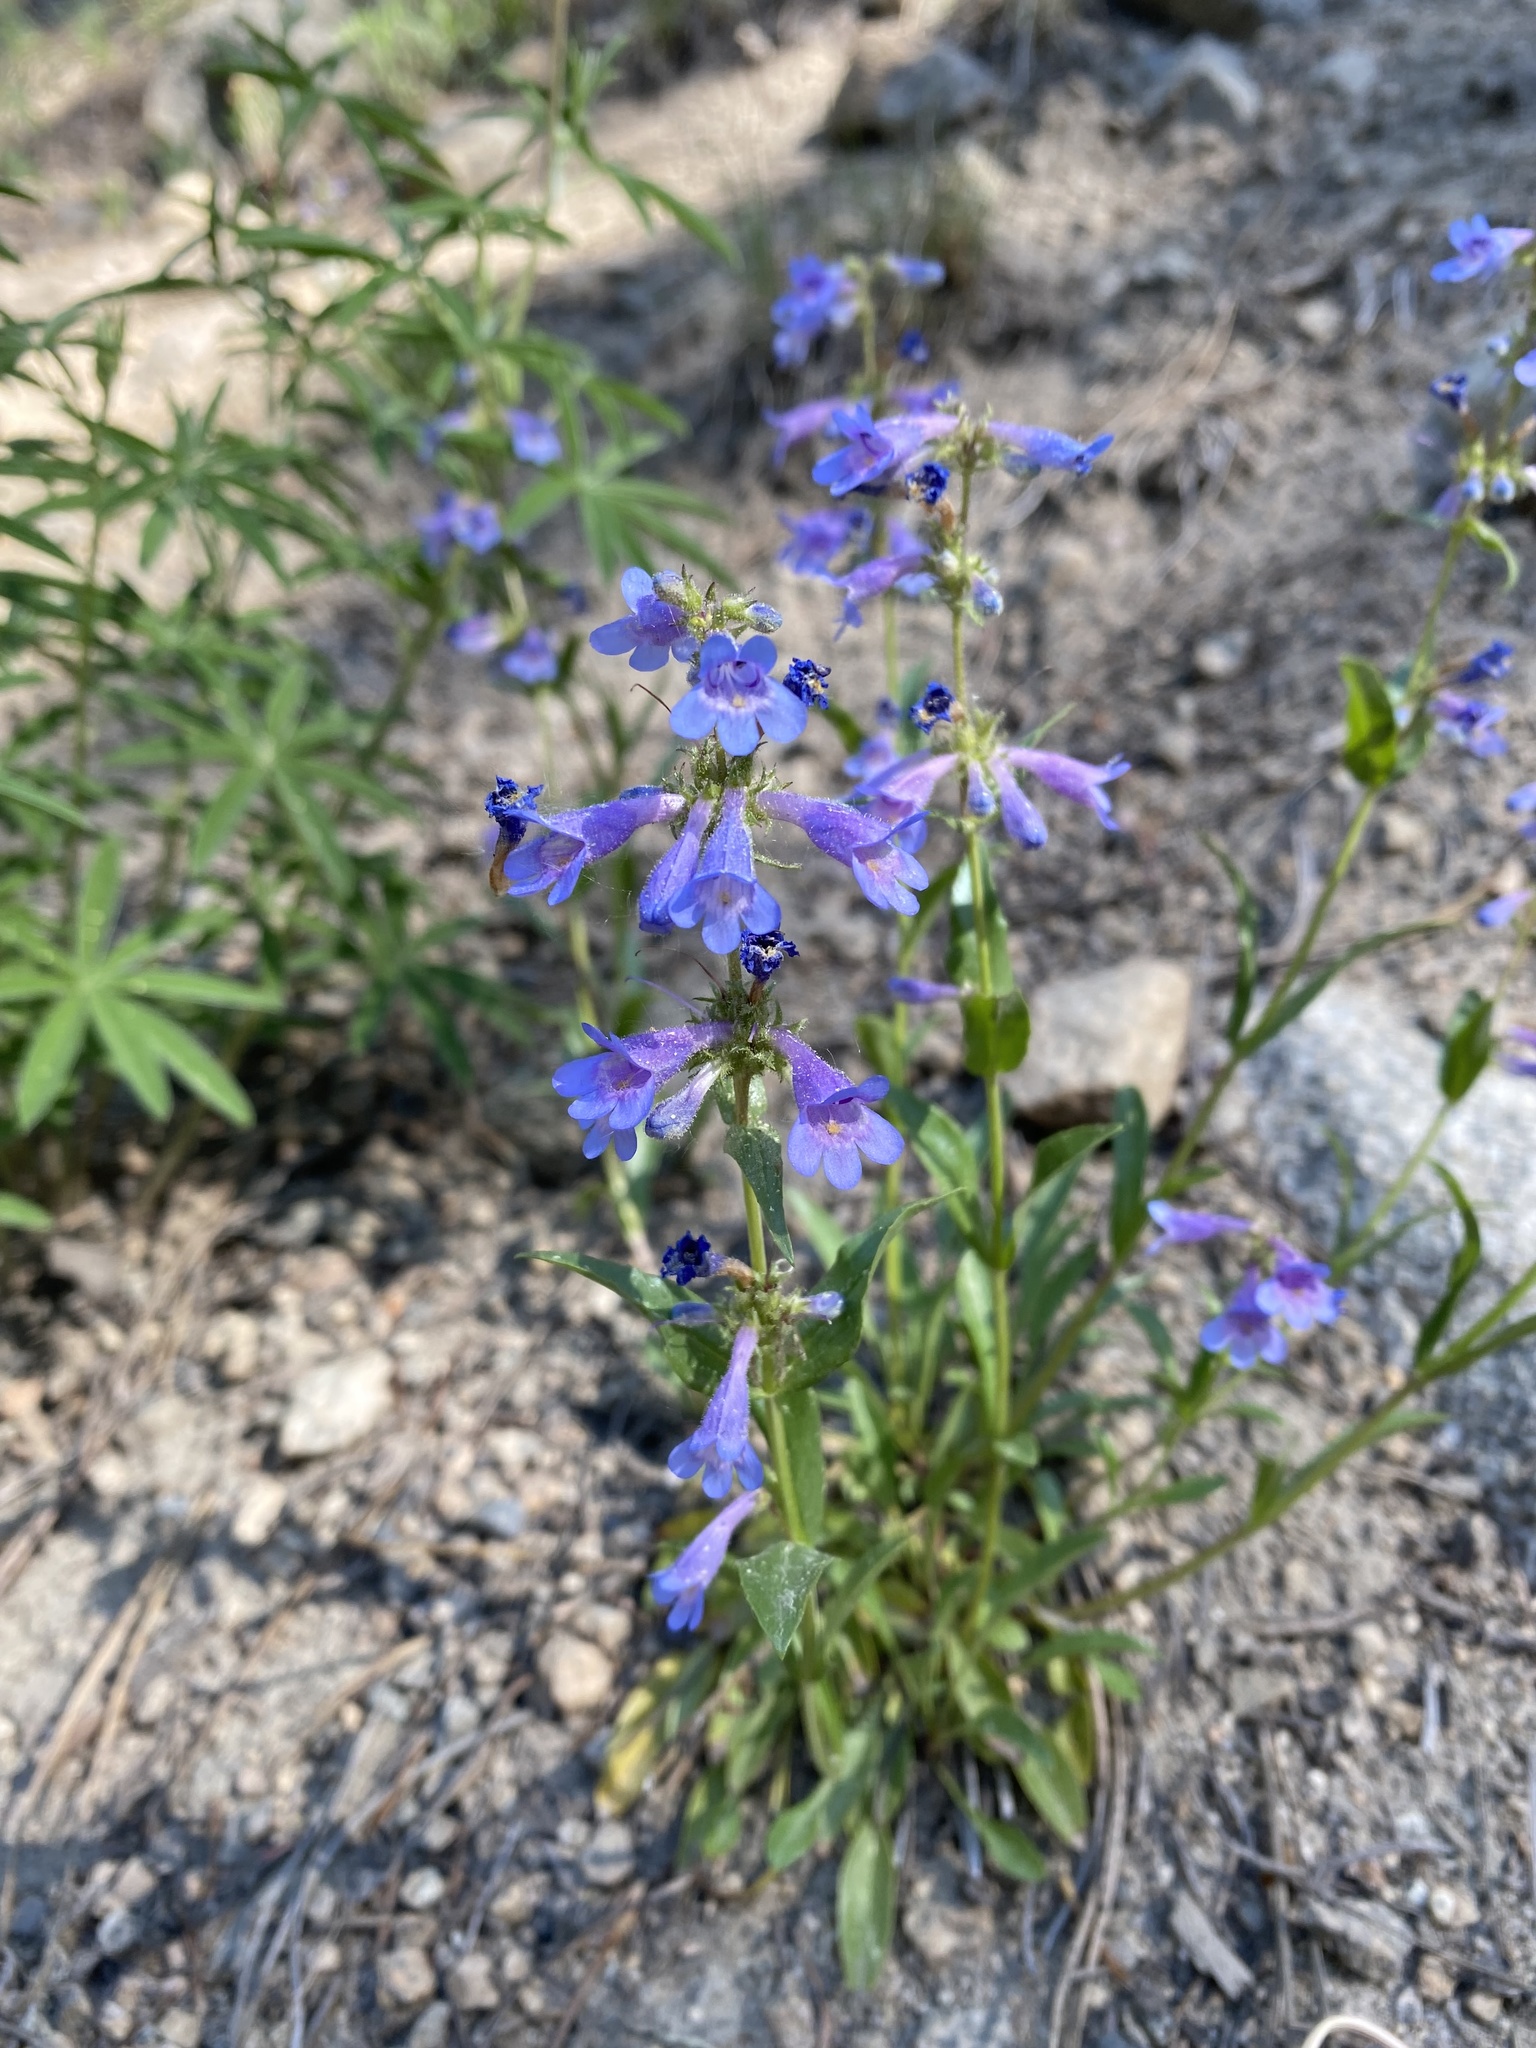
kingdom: Plantae
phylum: Tracheophyta
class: Magnoliopsida
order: Lamiales
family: Plantaginaceae
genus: Penstemon
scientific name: Penstemon virens
